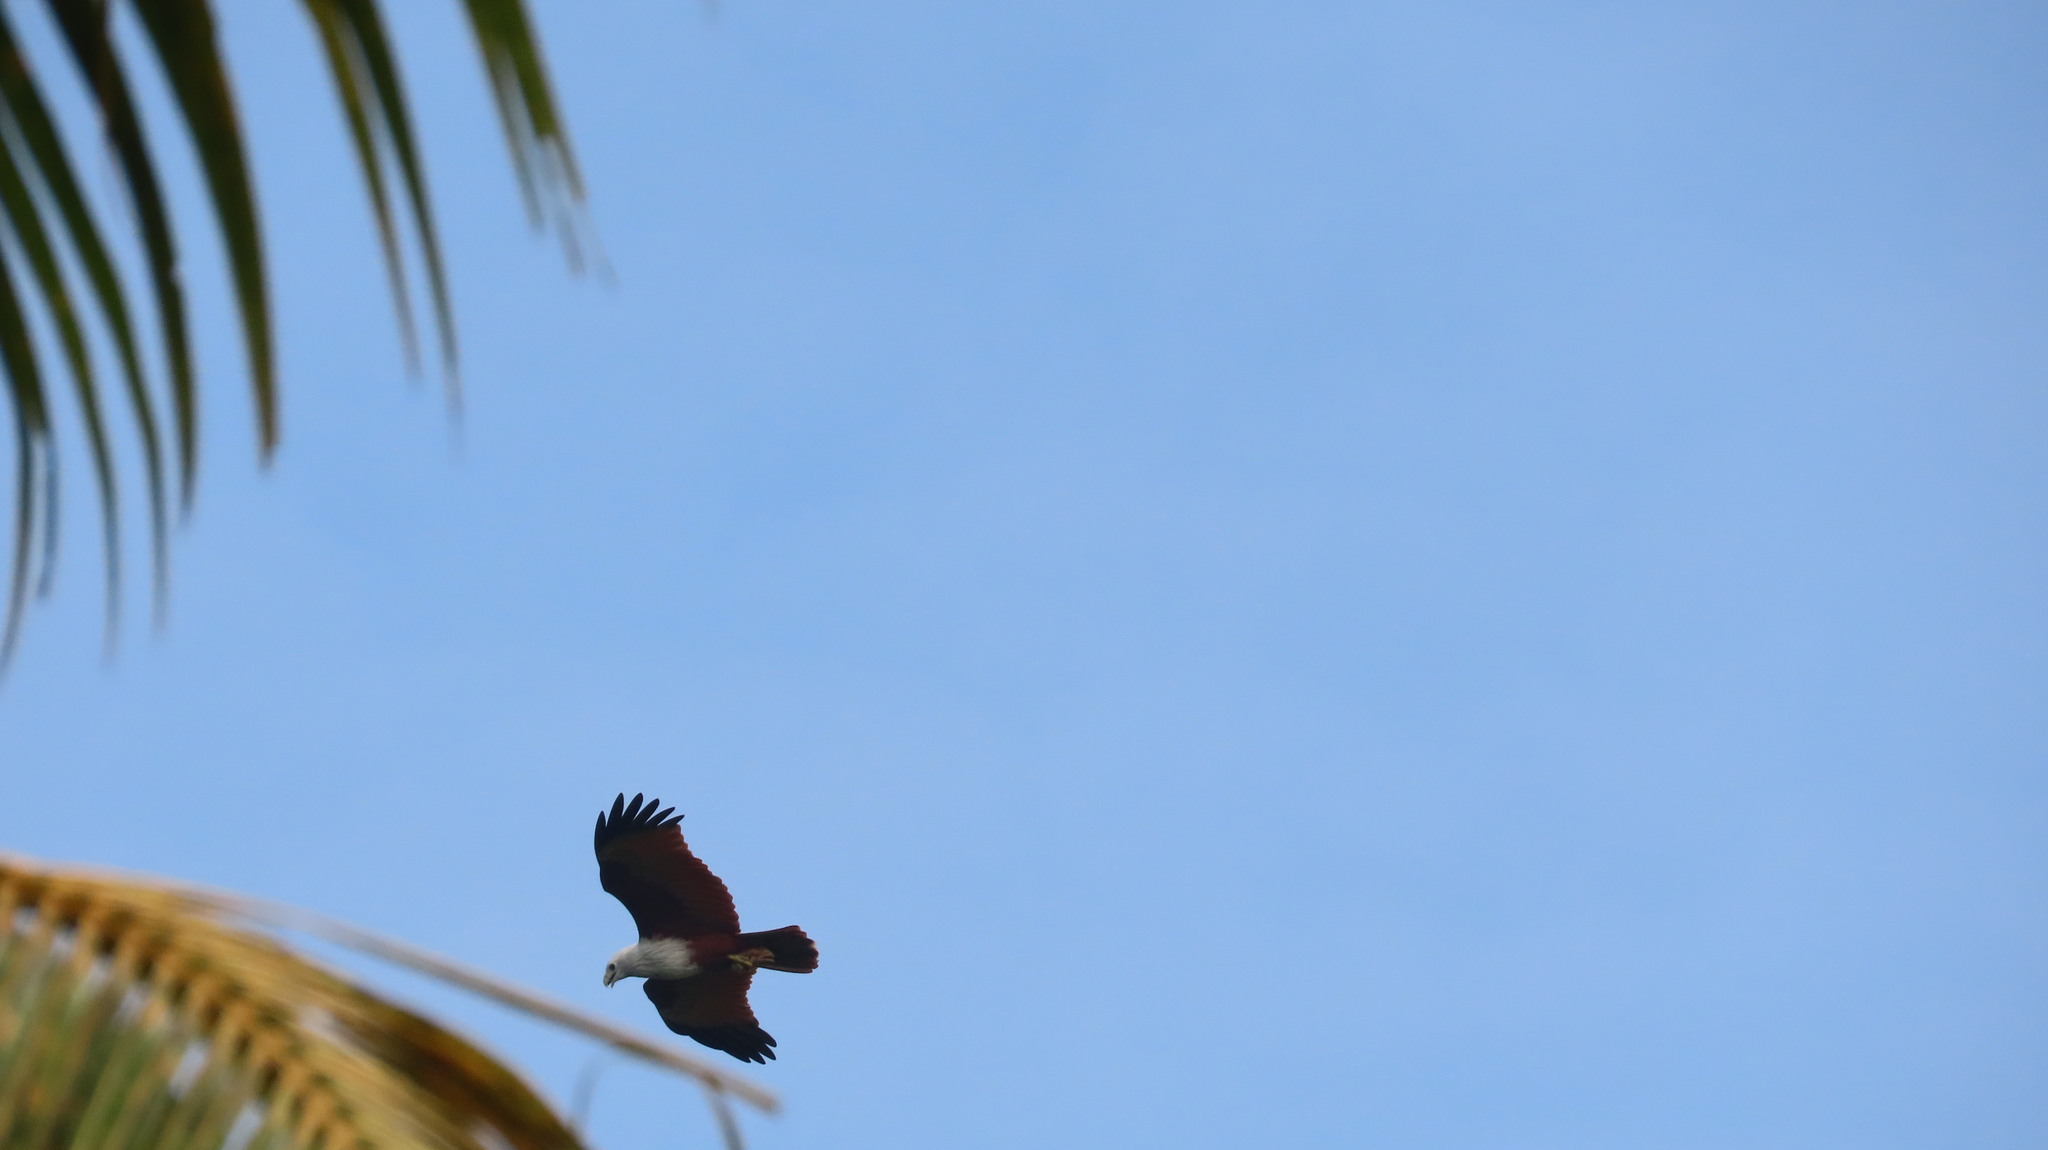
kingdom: Animalia
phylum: Chordata
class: Aves
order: Accipitriformes
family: Accipitridae
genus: Haliastur
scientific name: Haliastur indus
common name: Brahminy kite
